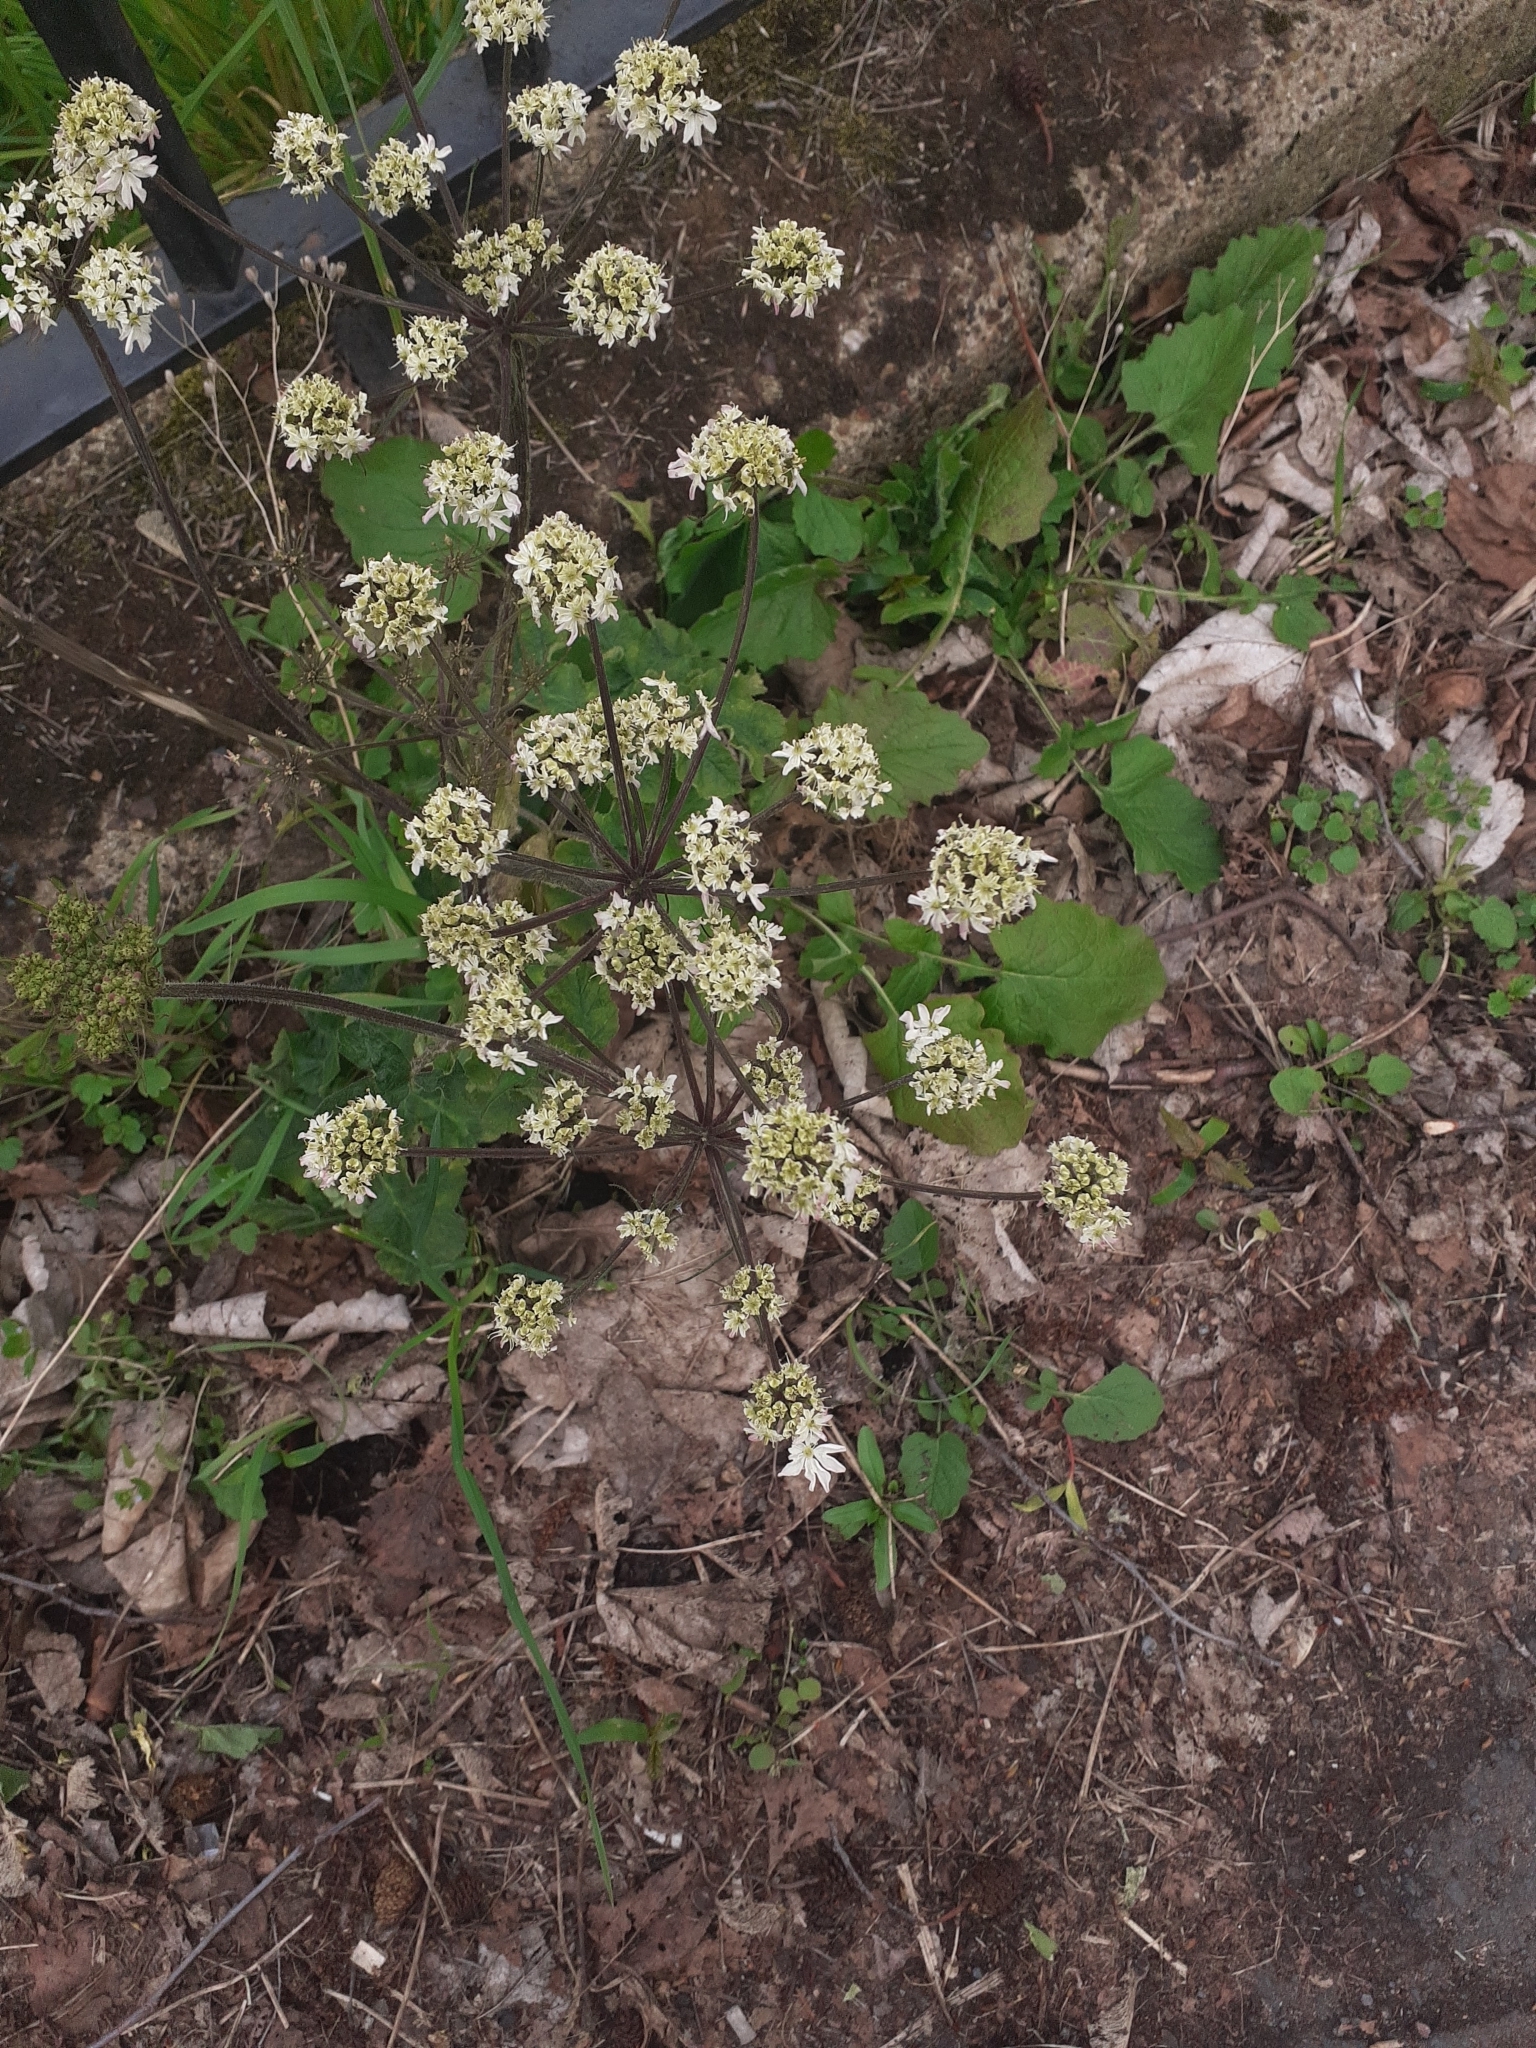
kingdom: Plantae
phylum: Tracheophyta
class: Magnoliopsida
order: Apiales
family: Apiaceae
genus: Heracleum
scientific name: Heracleum sphondylium
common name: Hogweed
